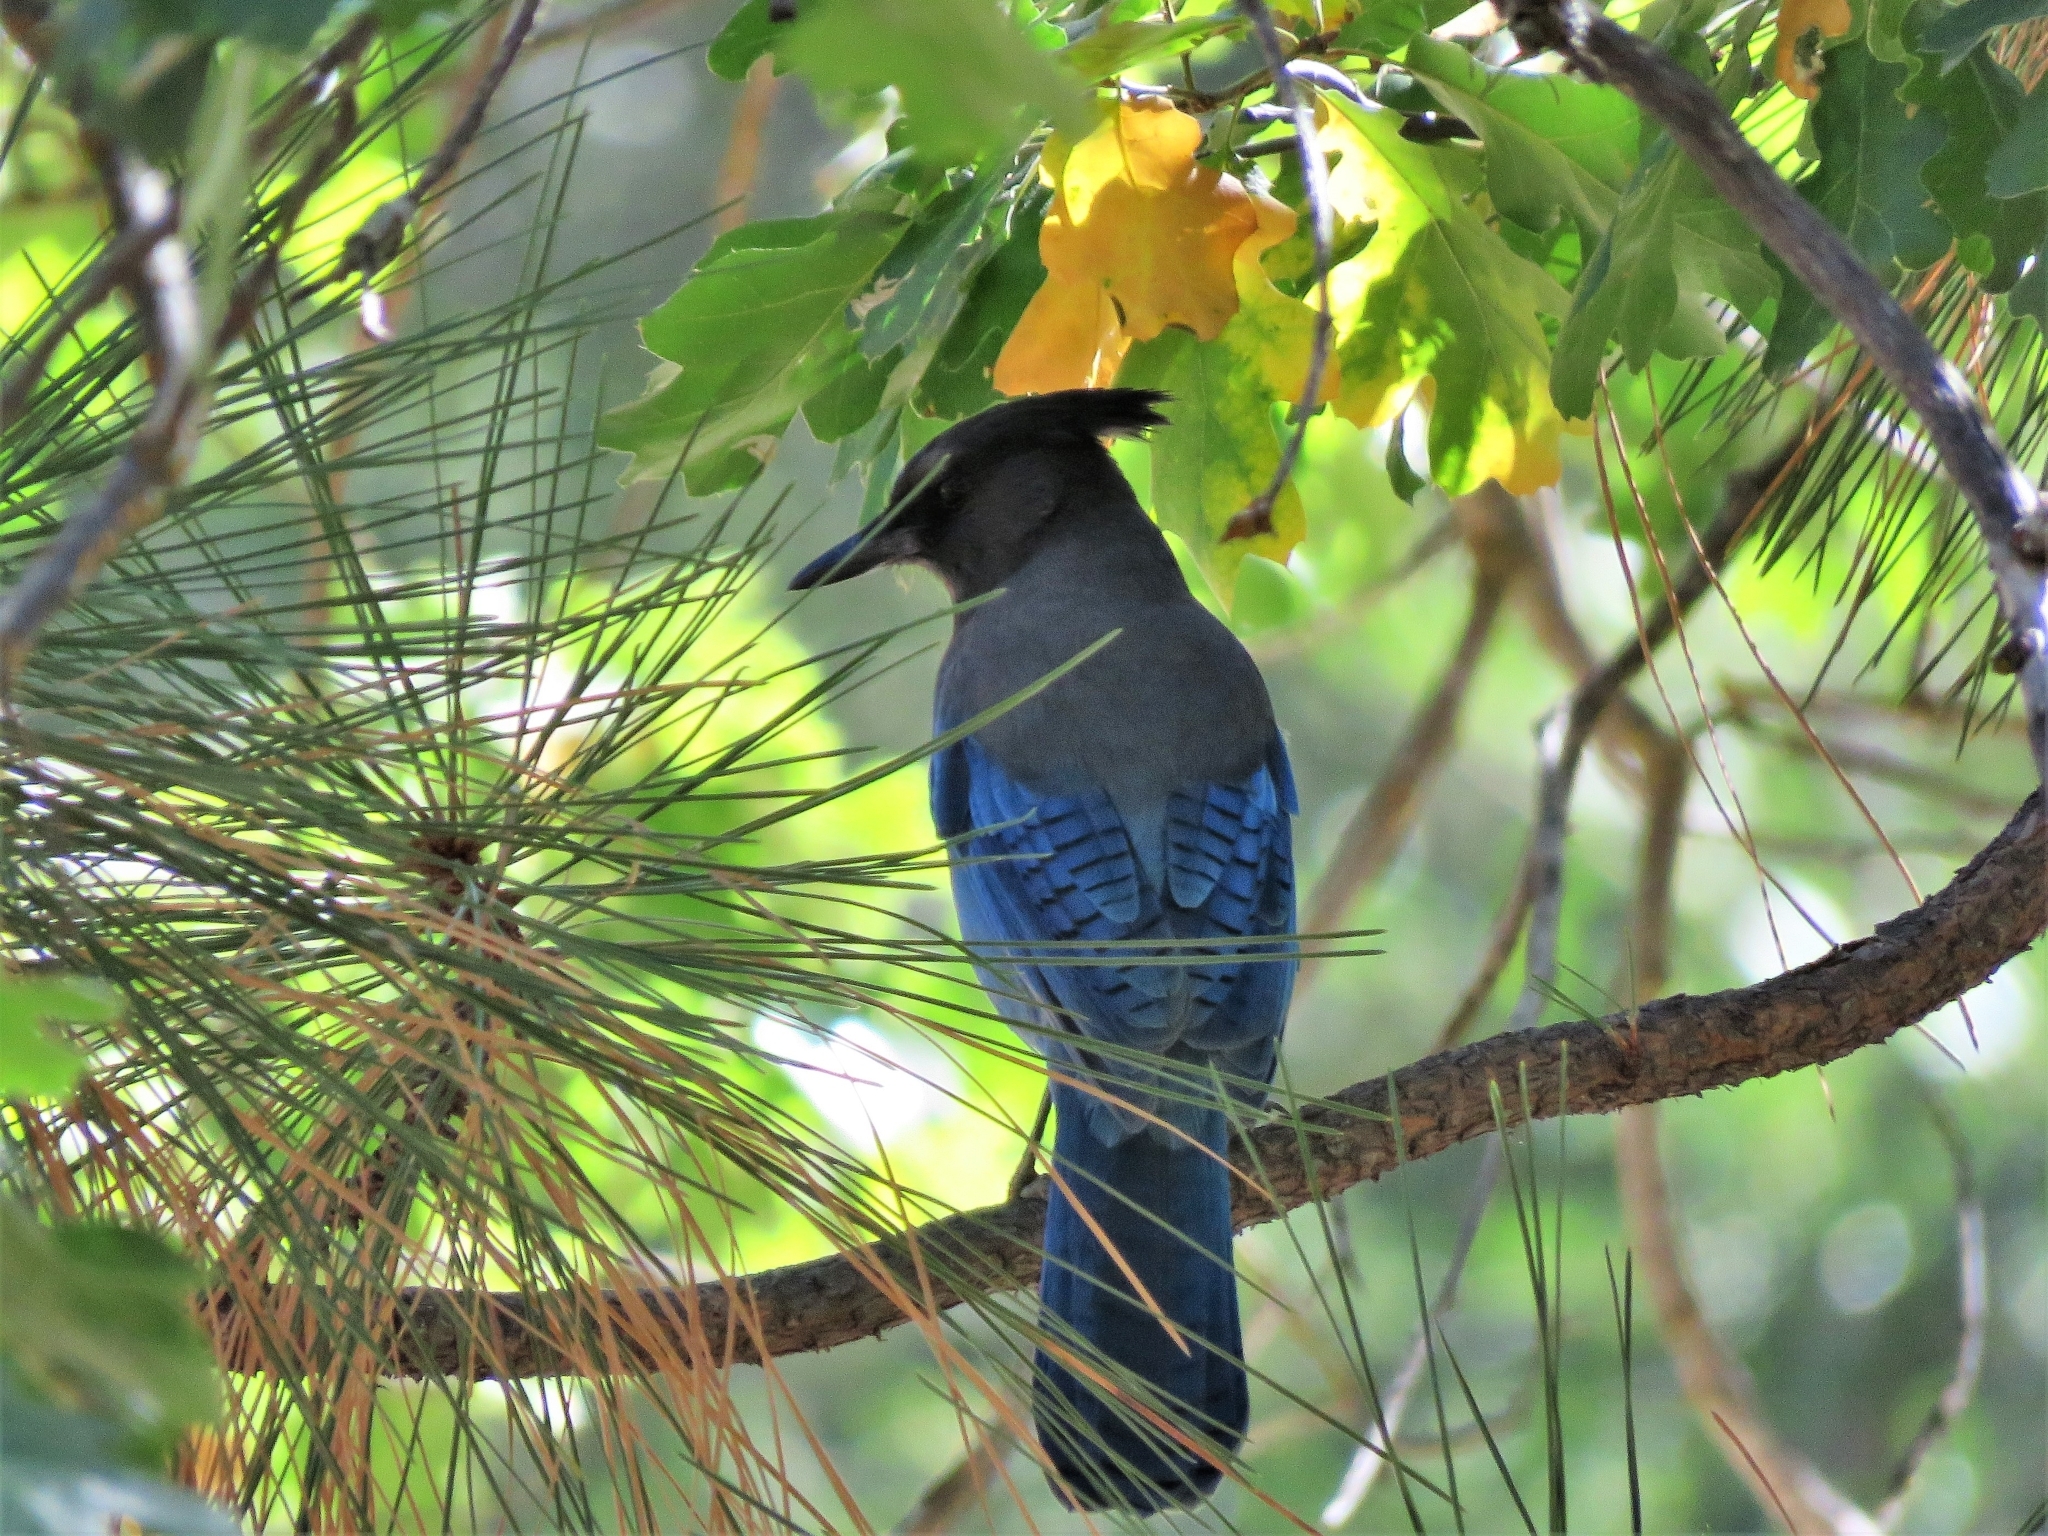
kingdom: Animalia
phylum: Chordata
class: Aves
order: Passeriformes
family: Corvidae
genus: Cyanocitta
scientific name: Cyanocitta stelleri
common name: Steller's jay
